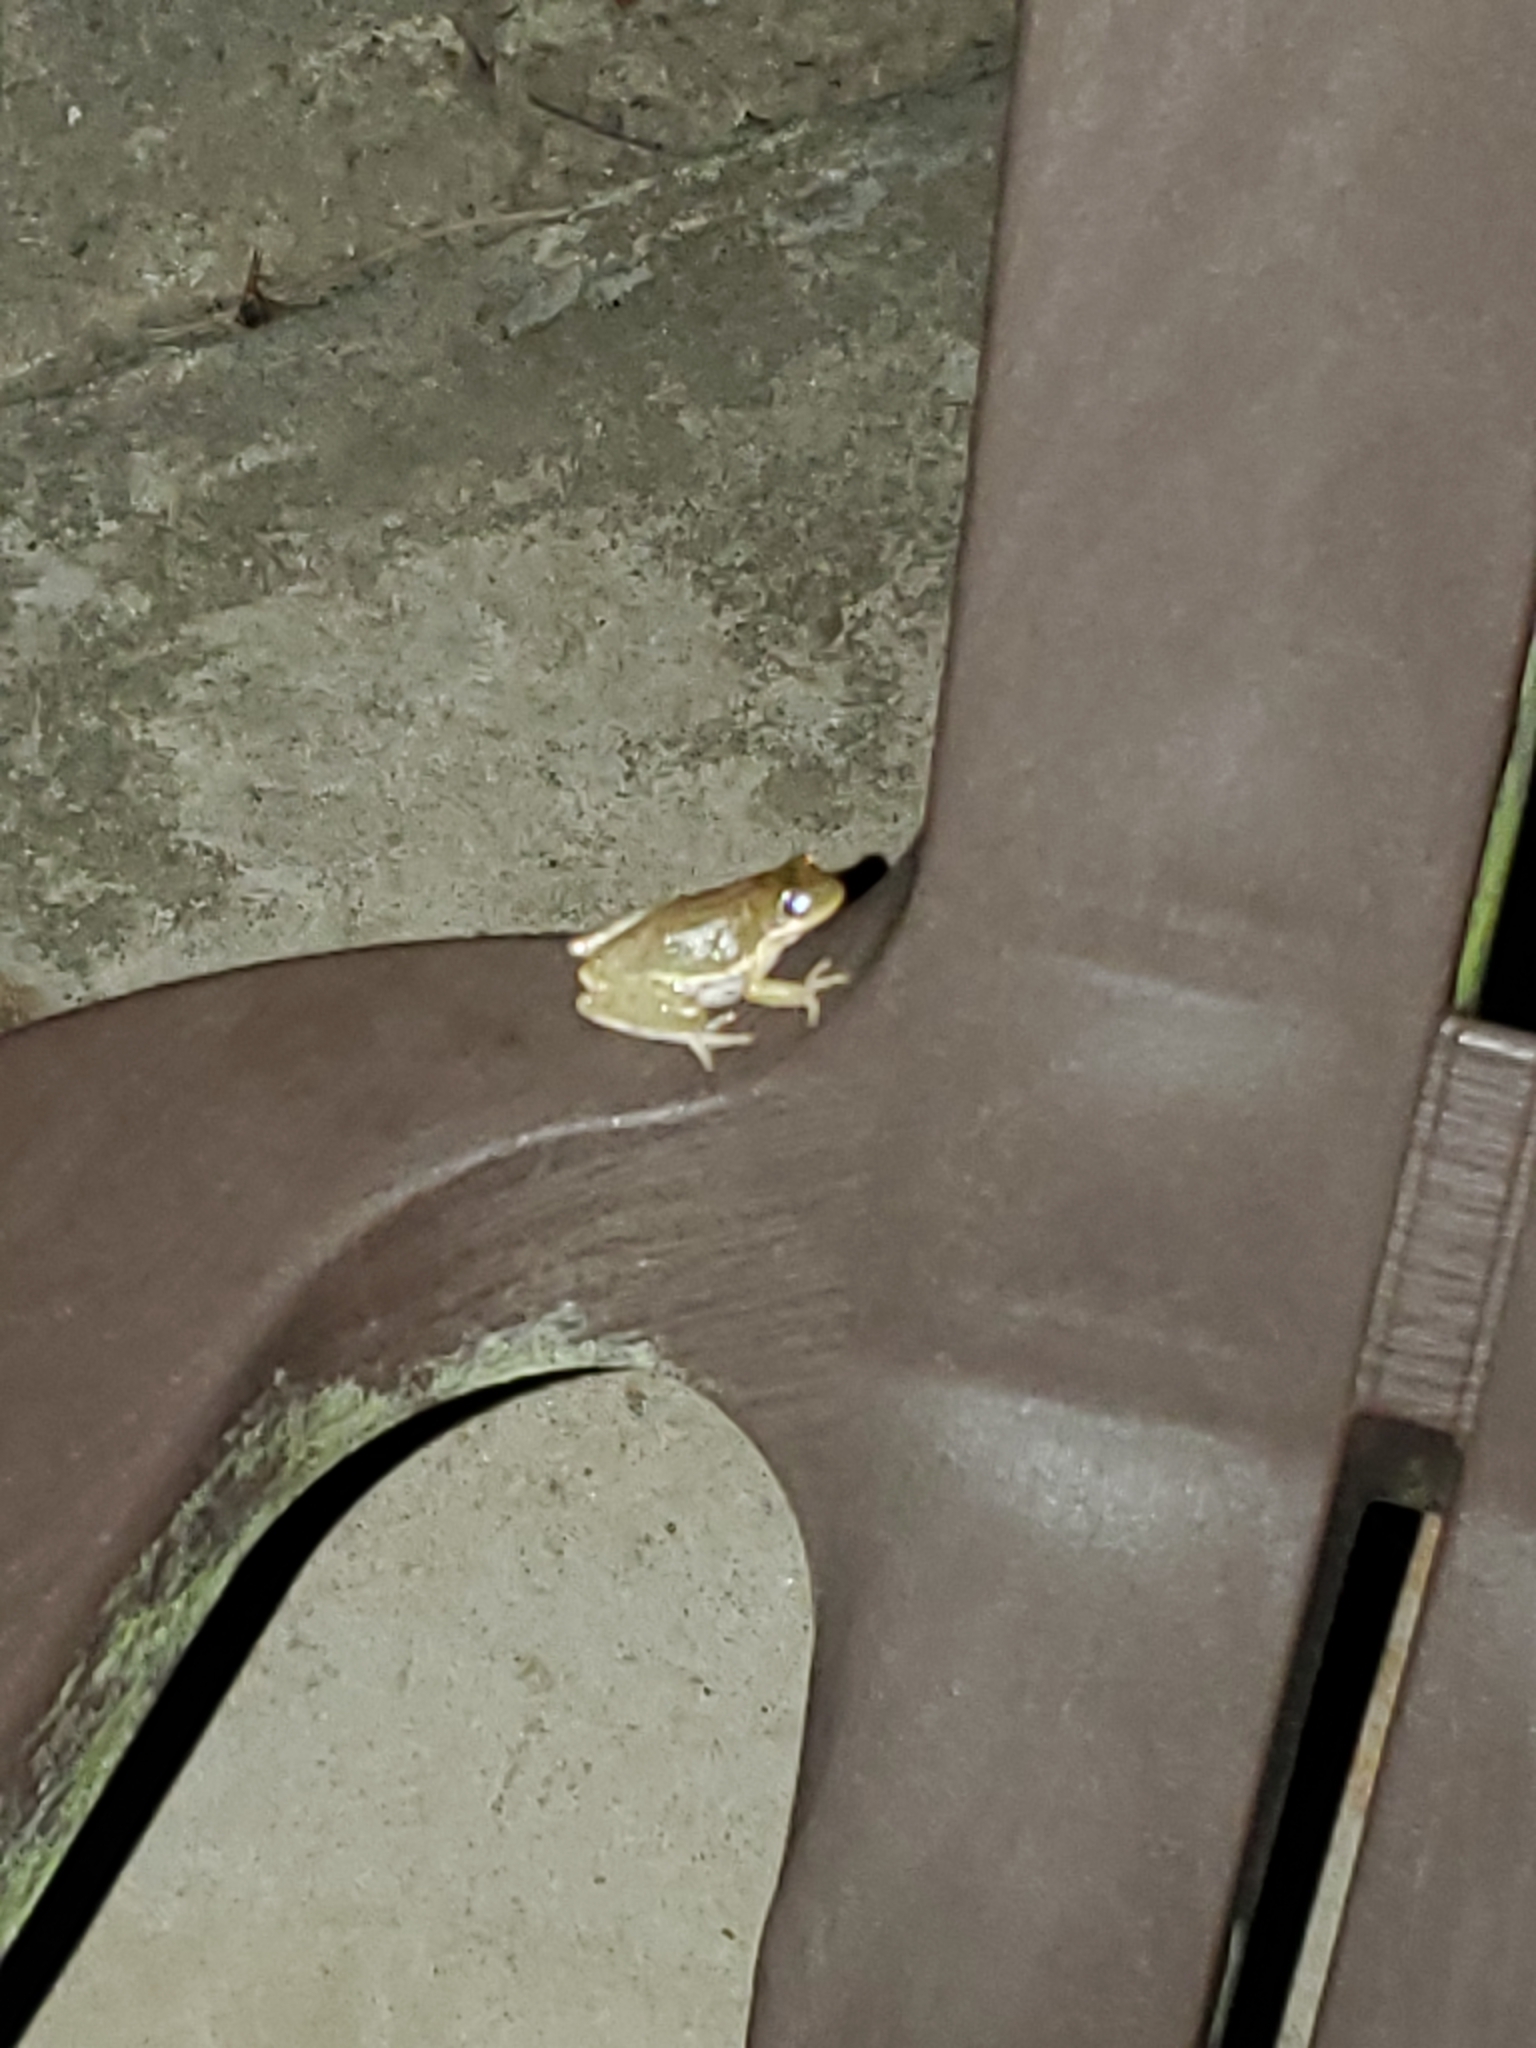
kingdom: Animalia
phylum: Chordata
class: Amphibia
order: Anura
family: Hylidae
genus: Dryophytes
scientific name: Dryophytes squirellus
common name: Squirrel treefrog
